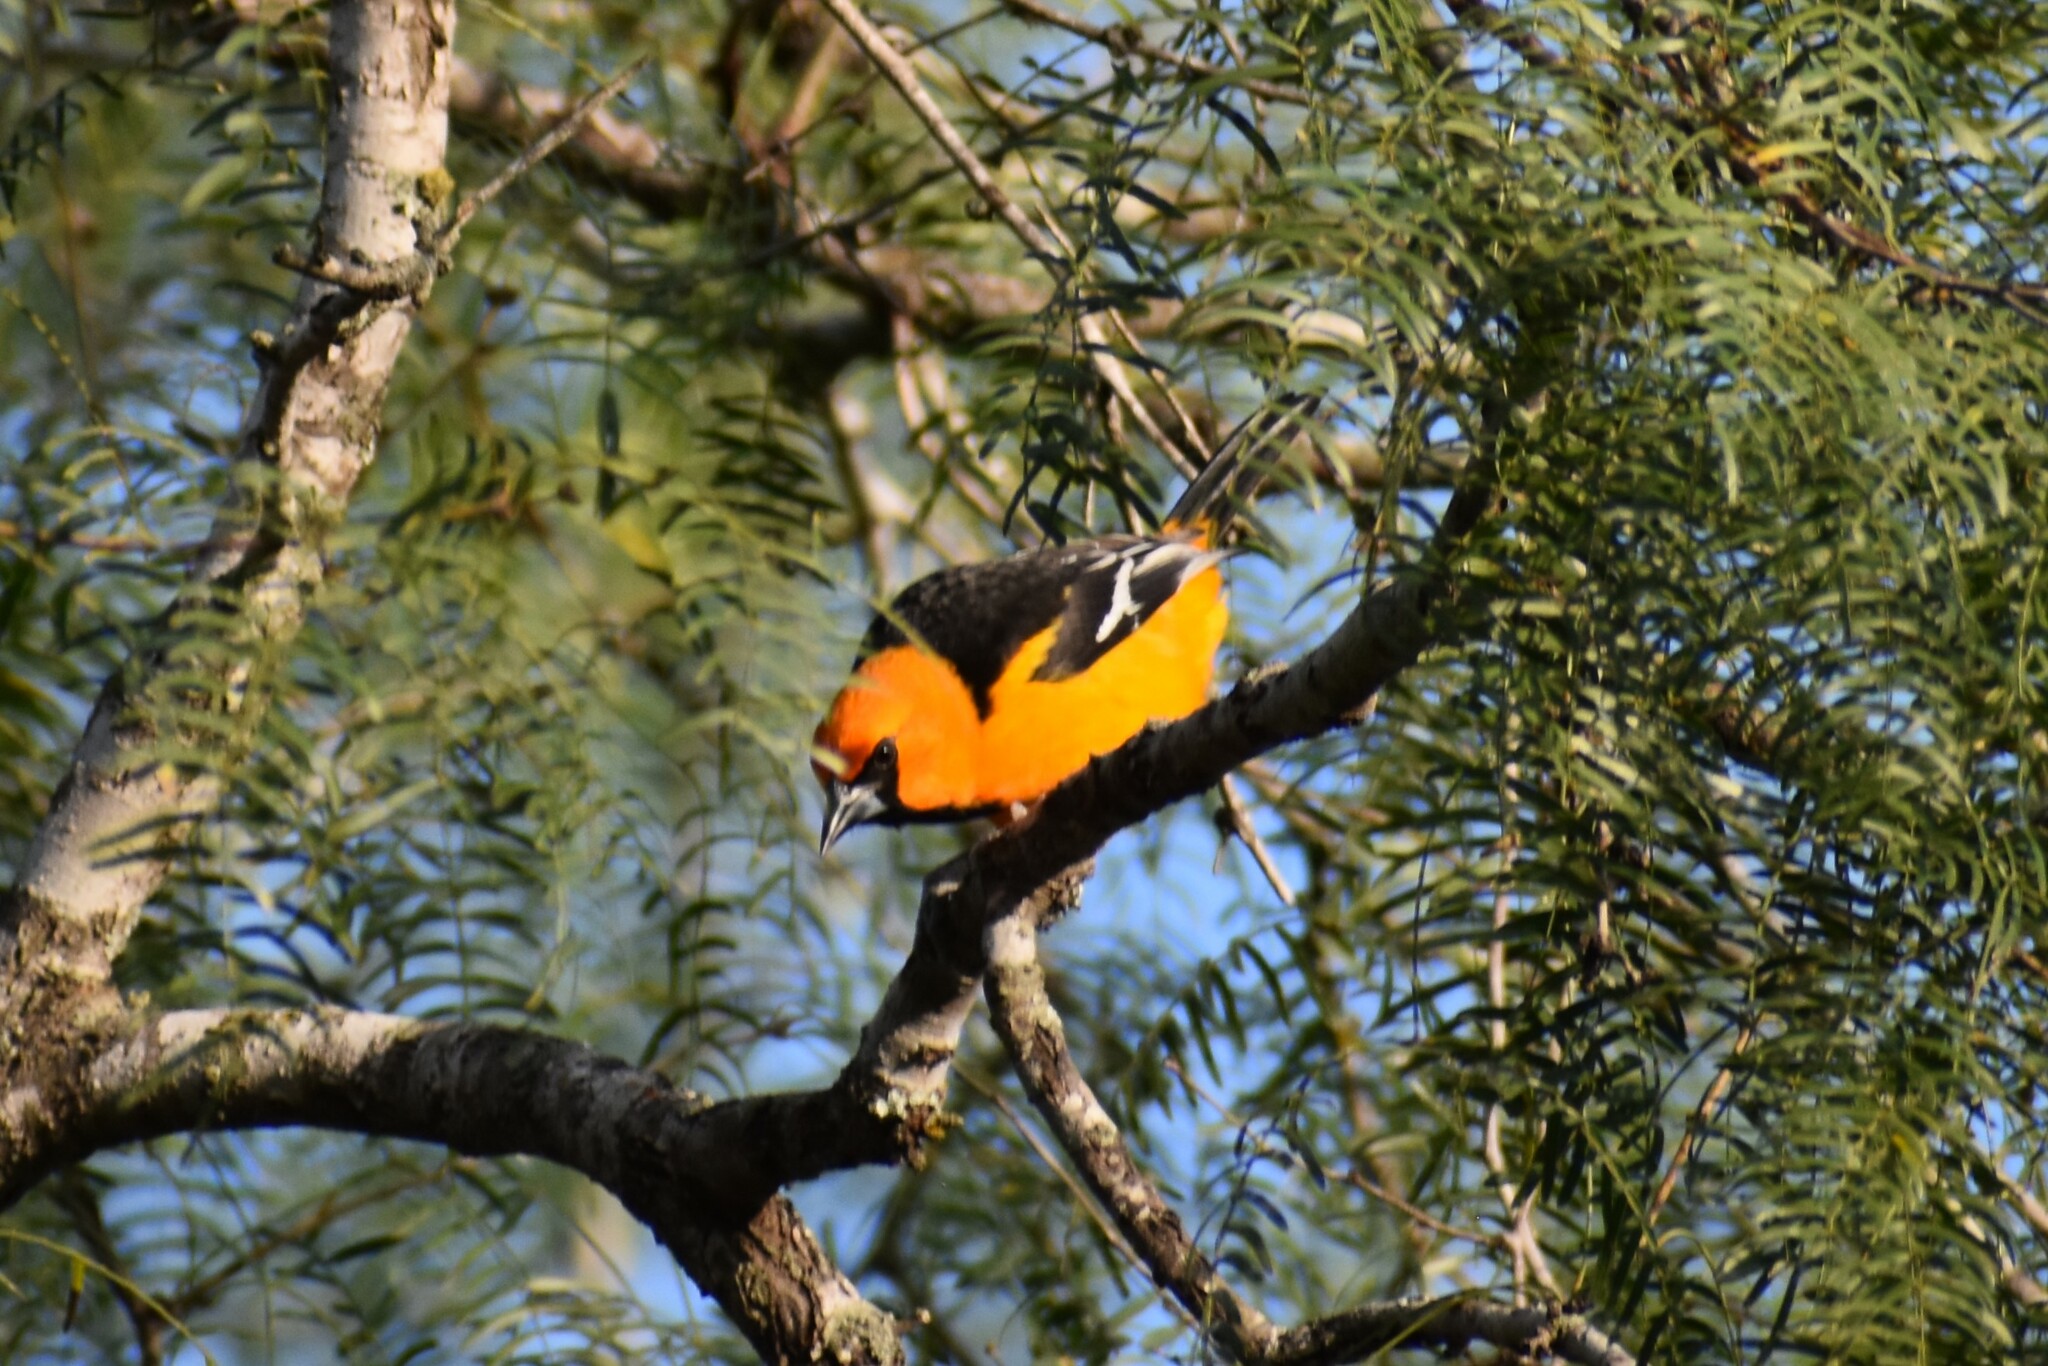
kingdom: Animalia
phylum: Chordata
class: Aves
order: Passeriformes
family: Icteridae
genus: Icterus
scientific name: Icterus gularis
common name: Altamira oriole
